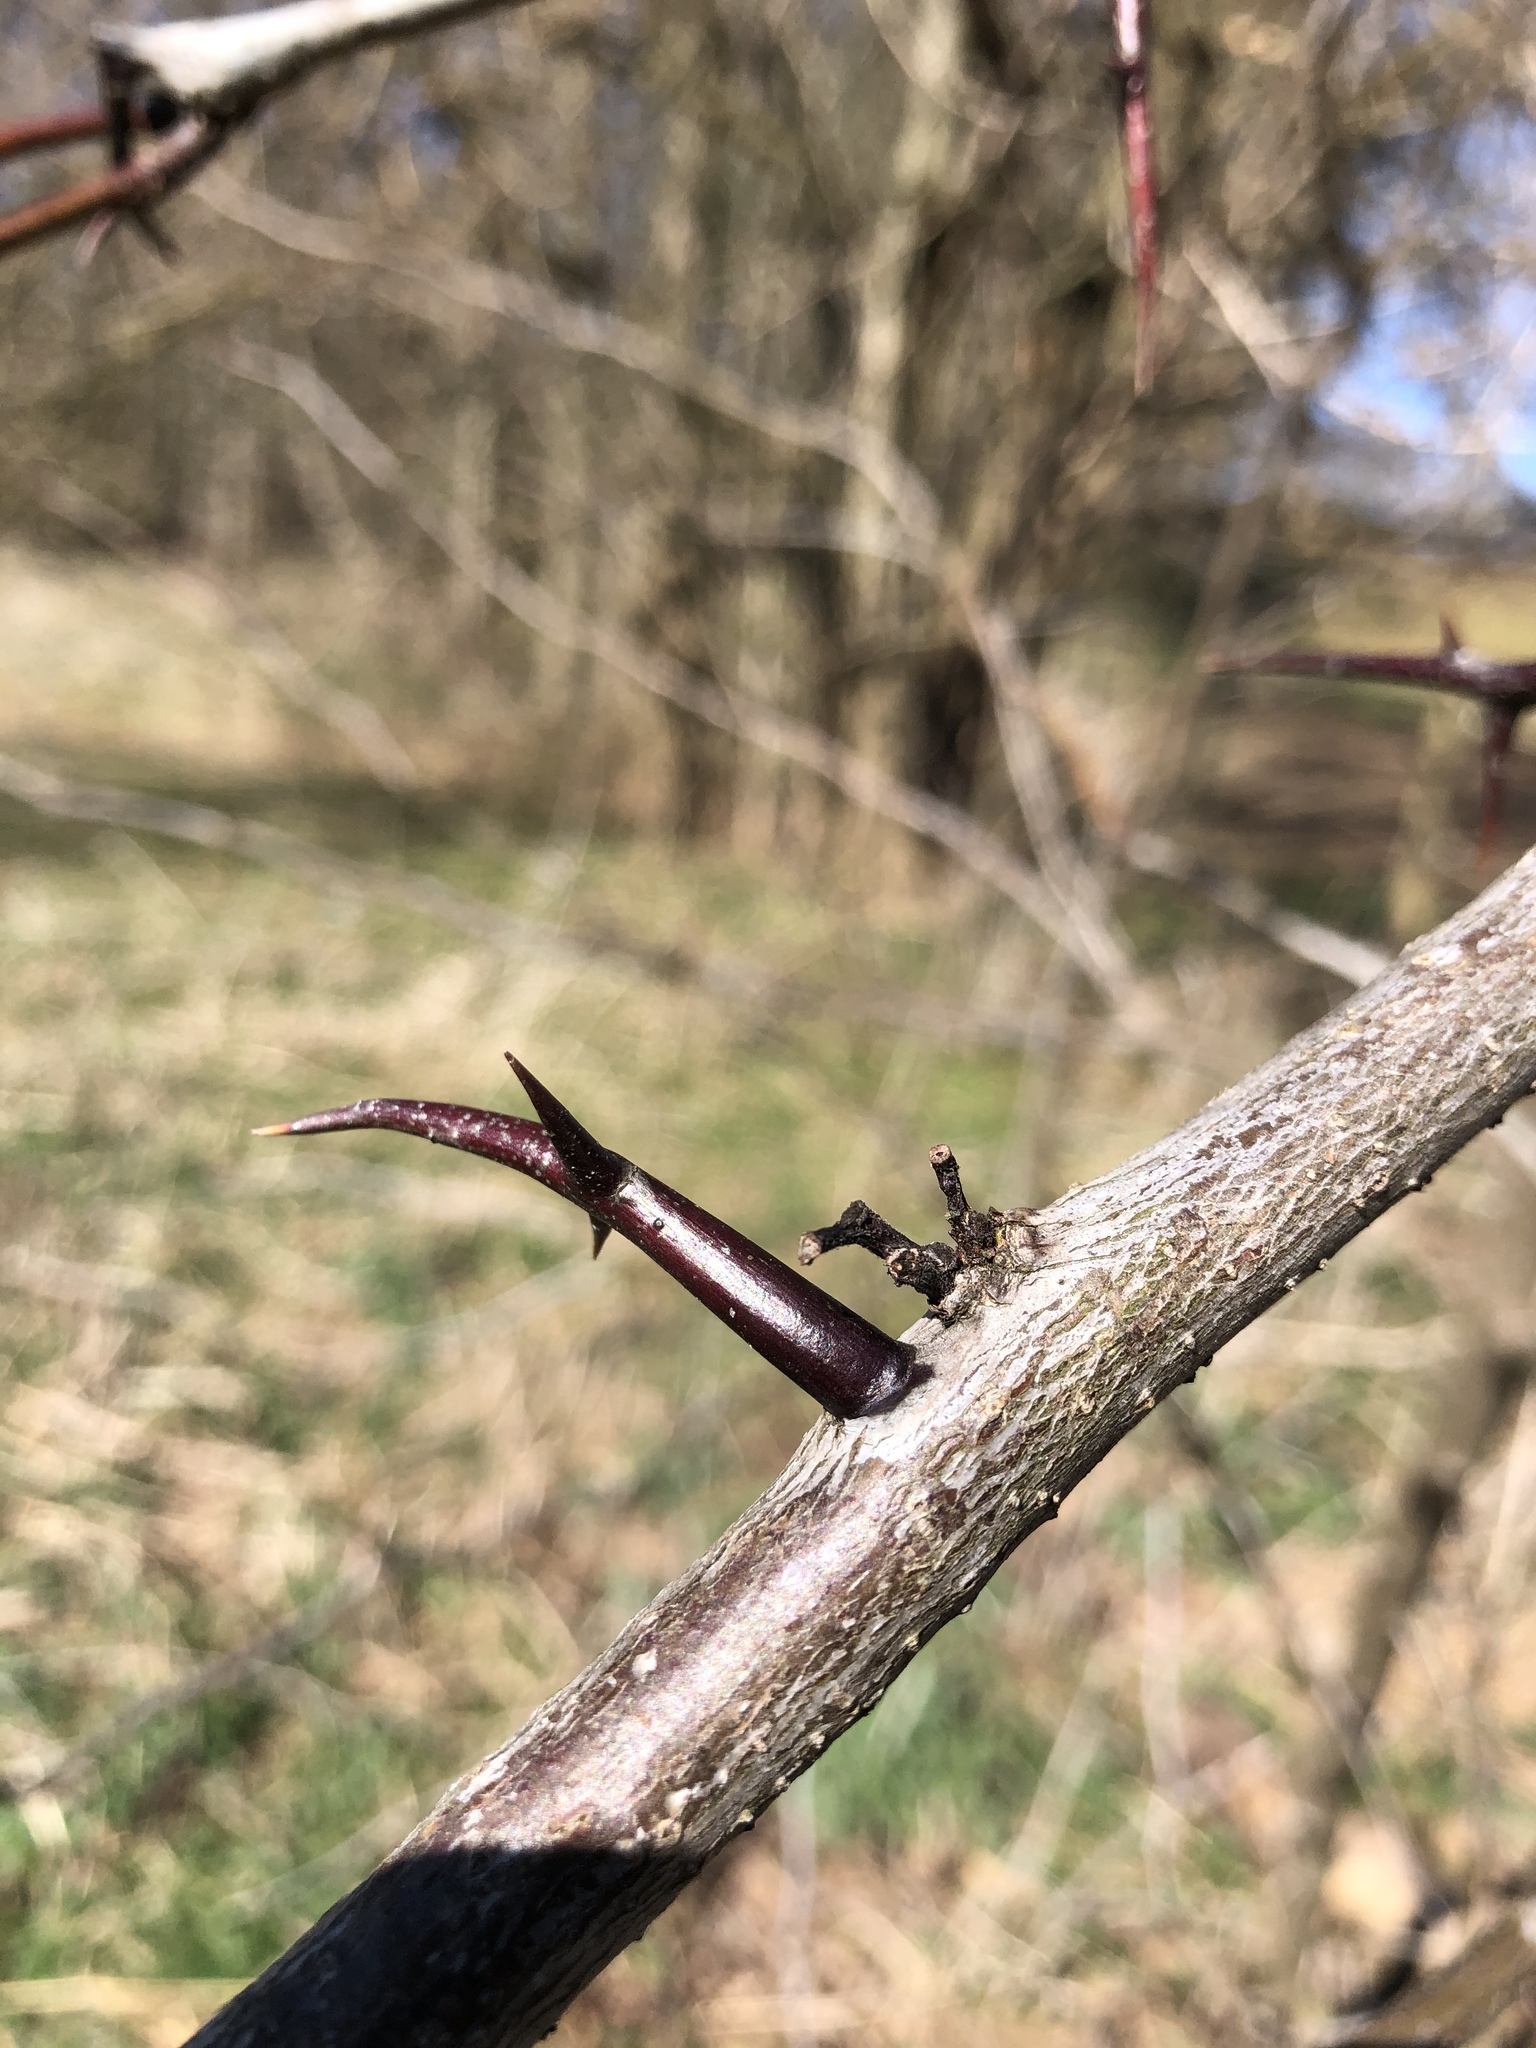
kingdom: Plantae
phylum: Tracheophyta
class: Magnoliopsida
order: Fabales
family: Fabaceae
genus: Gleditsia
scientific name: Gleditsia triacanthos
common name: Common honeylocust
